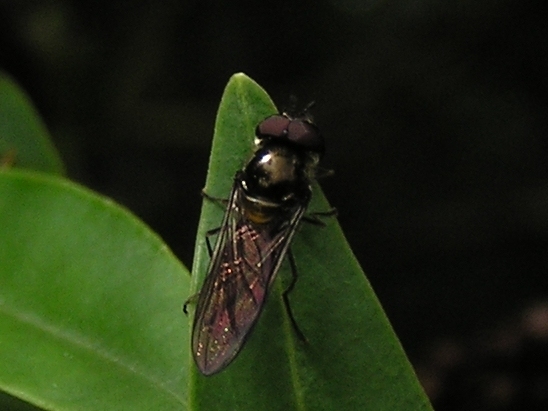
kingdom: Animalia
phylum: Arthropoda
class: Insecta
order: Diptera
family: Syrphidae
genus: Melangyna
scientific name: Melangyna novaezelandiae
